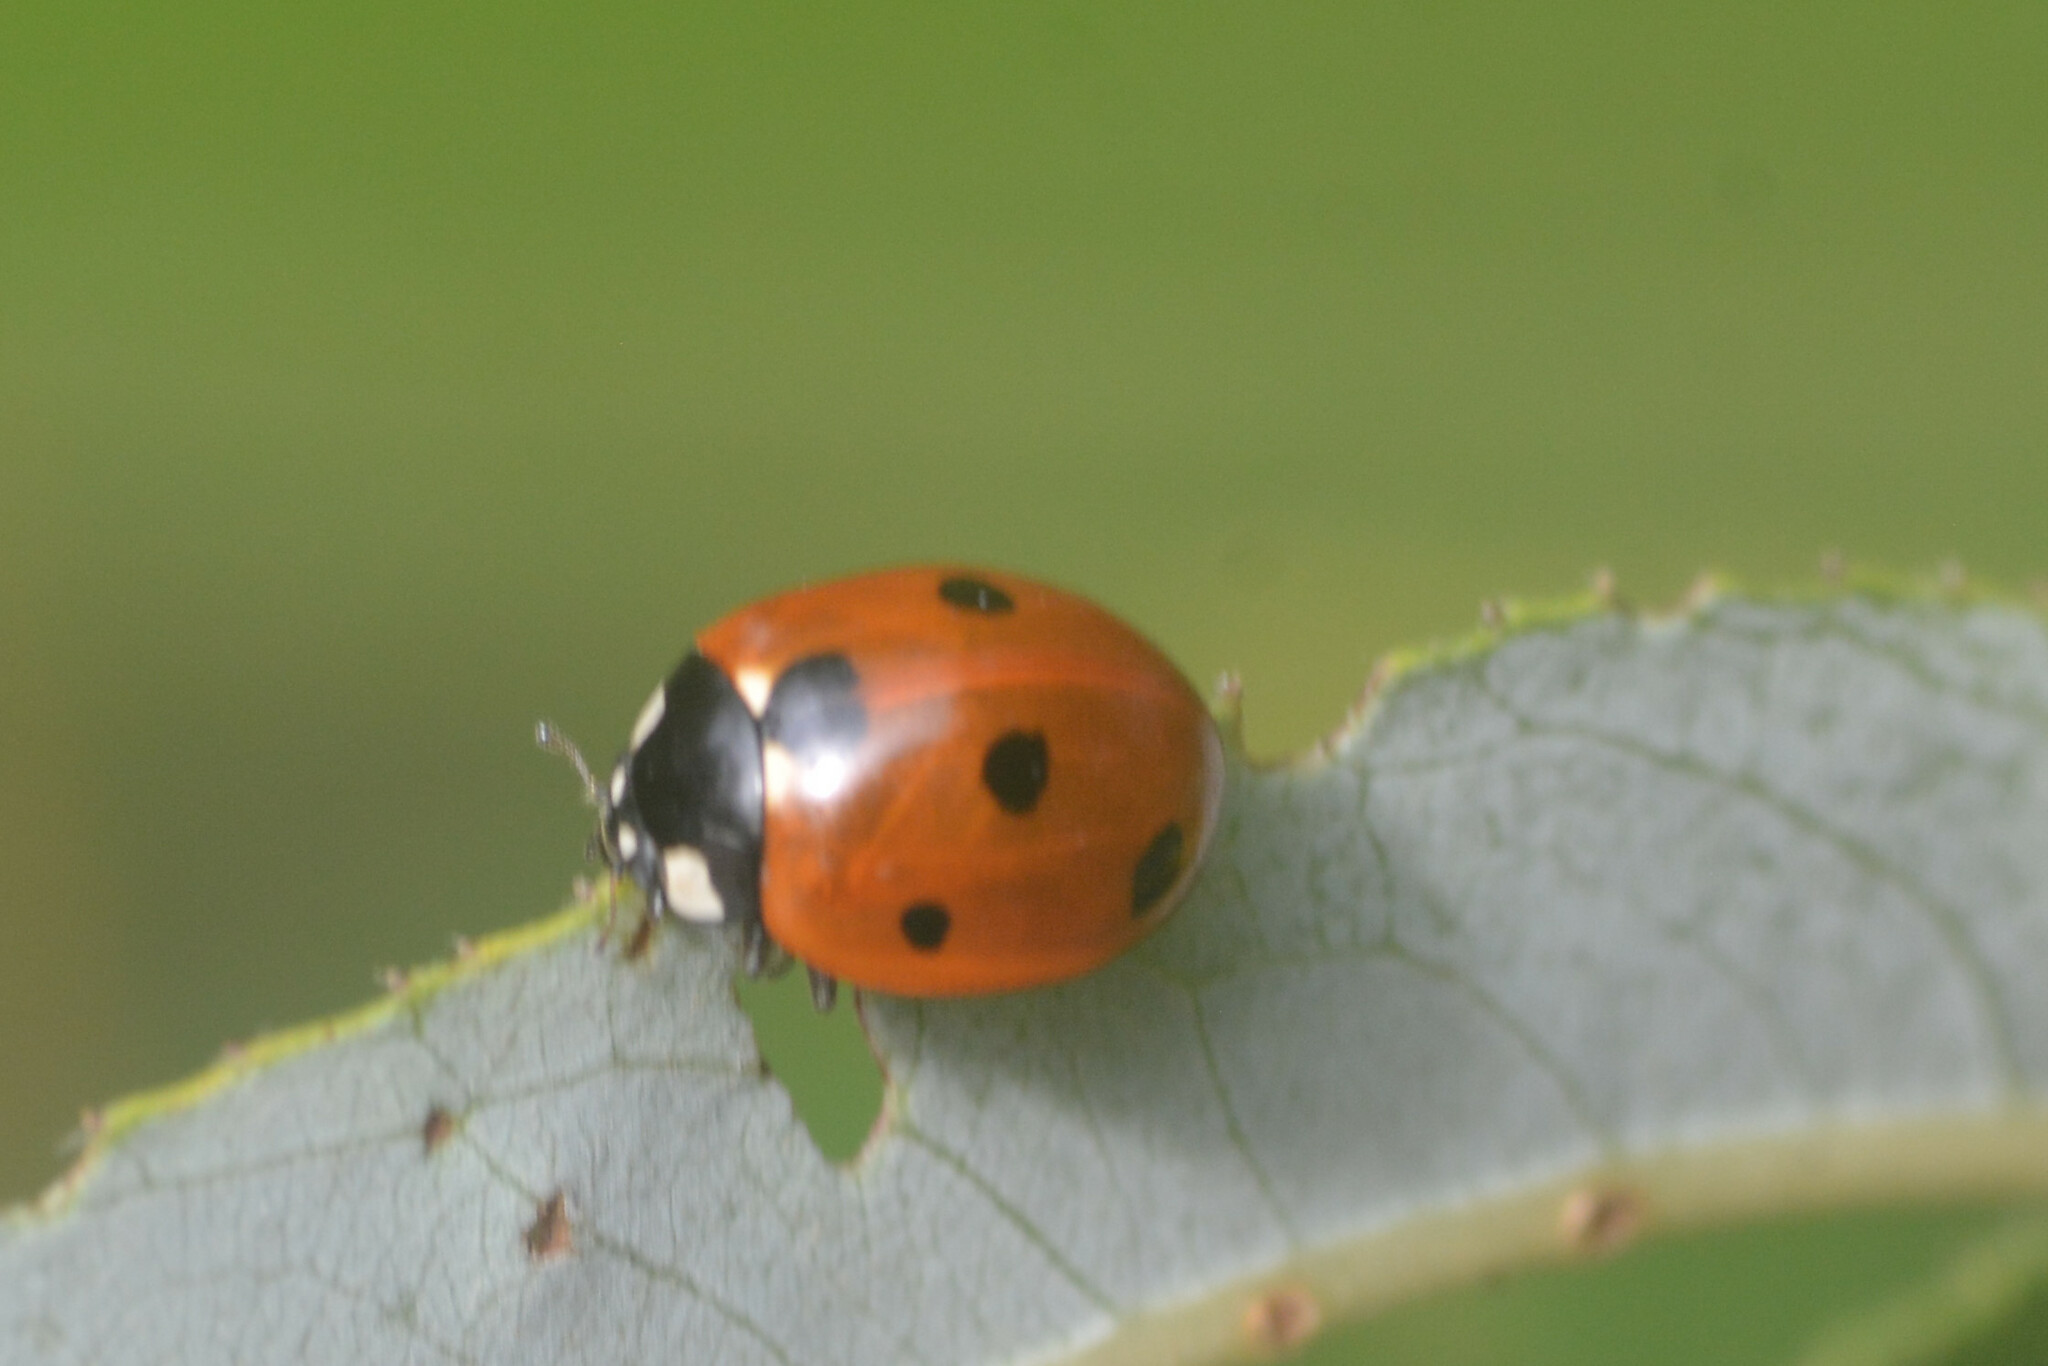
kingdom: Animalia
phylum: Arthropoda
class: Insecta
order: Coleoptera
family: Coccinellidae
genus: Coccinella
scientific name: Coccinella septempunctata
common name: Sevenspotted lady beetle
